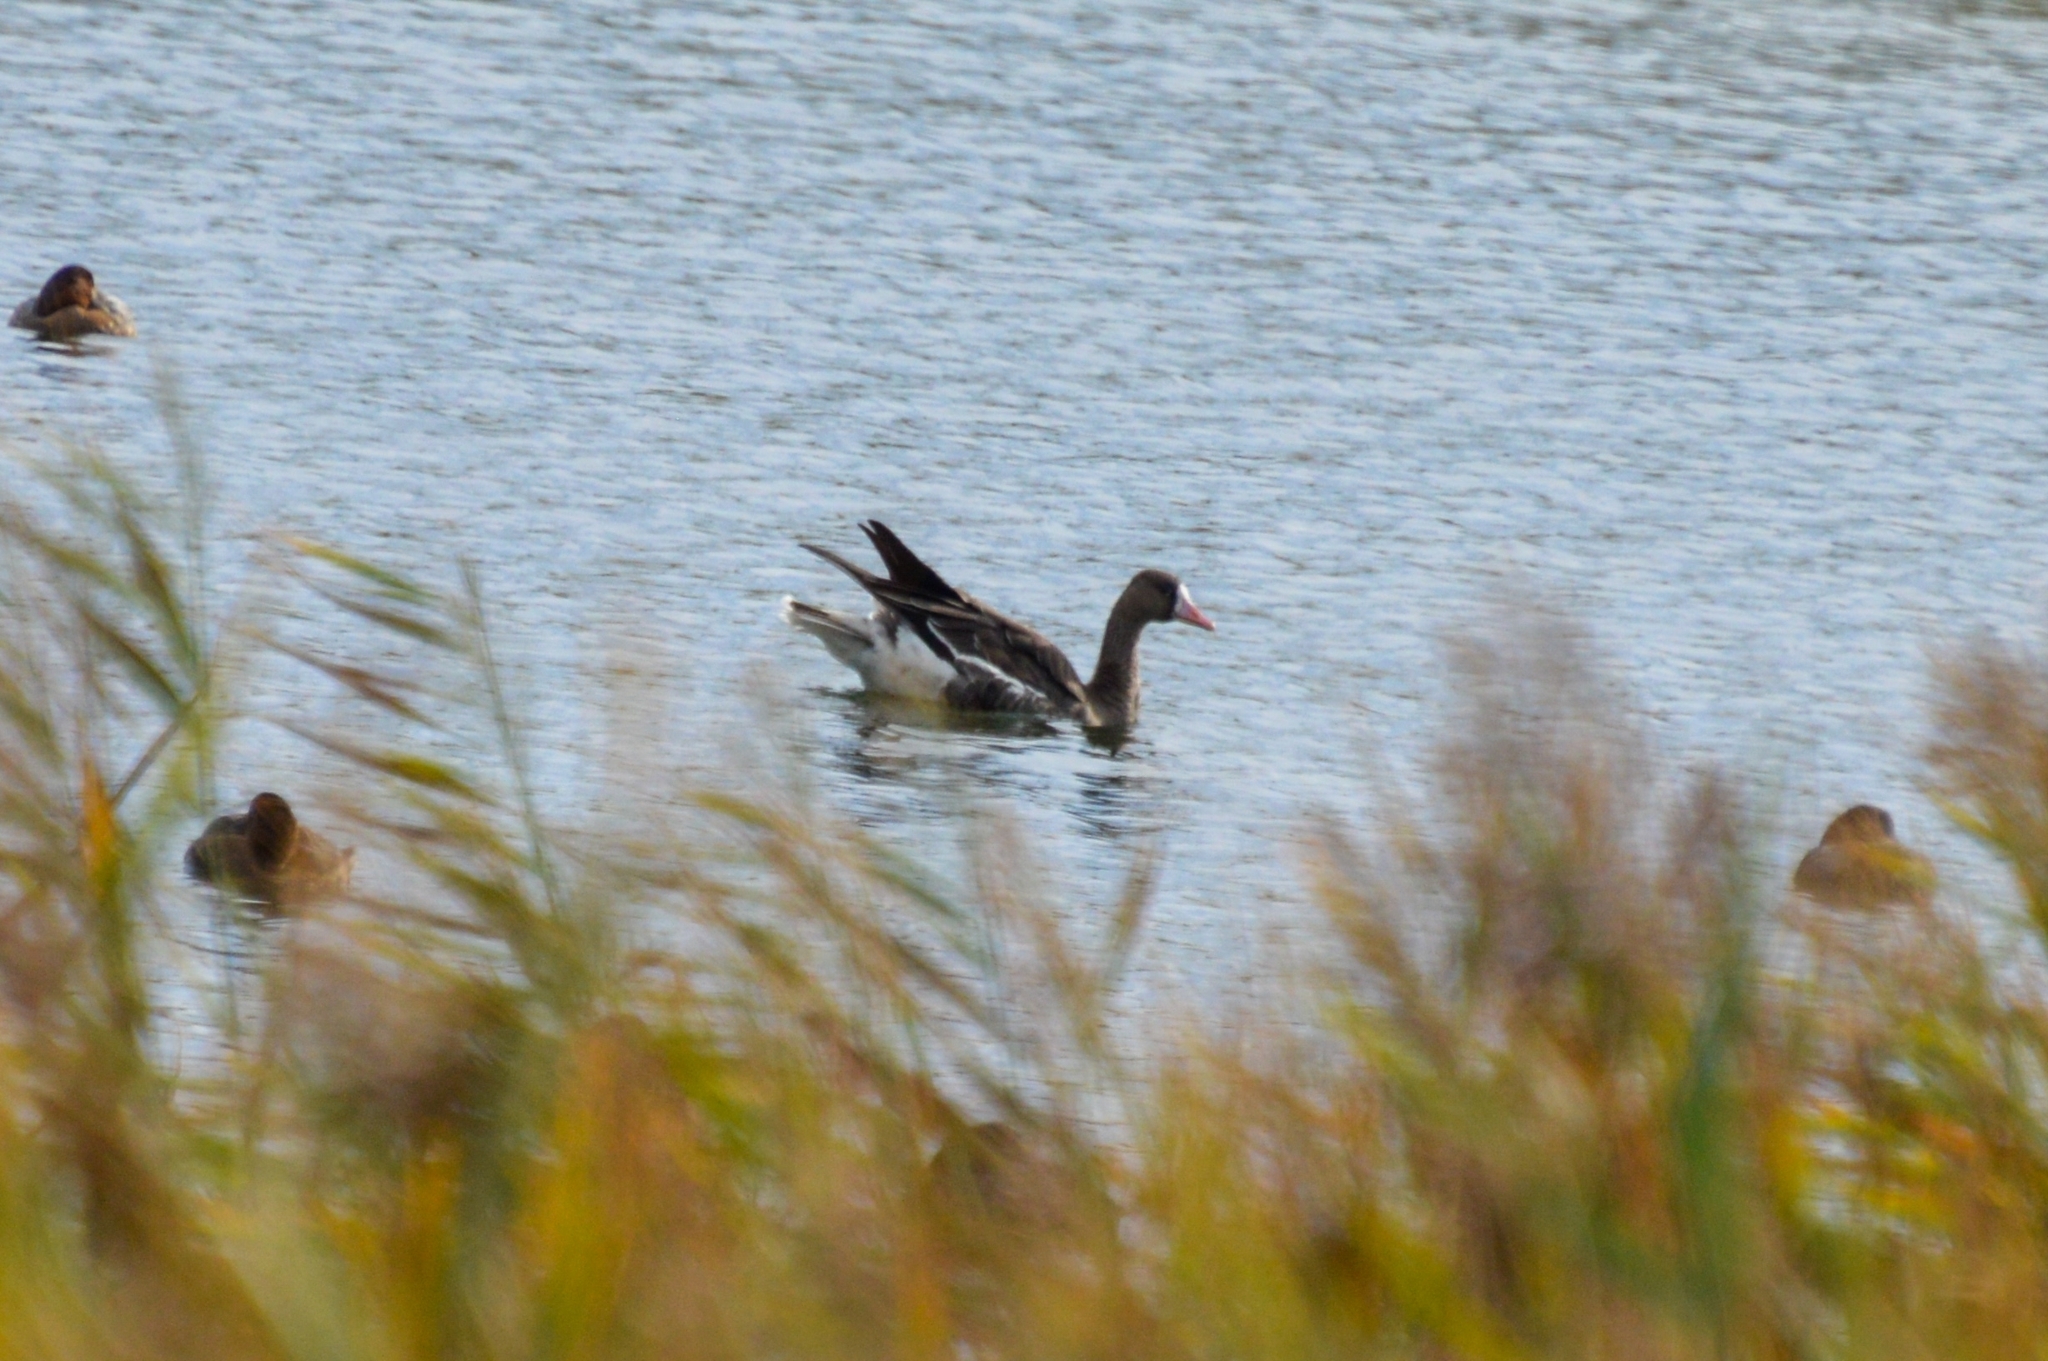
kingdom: Animalia
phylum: Chordata
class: Aves
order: Anseriformes
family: Anatidae
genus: Anser
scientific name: Anser albifrons
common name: Greater white-fronted goose
